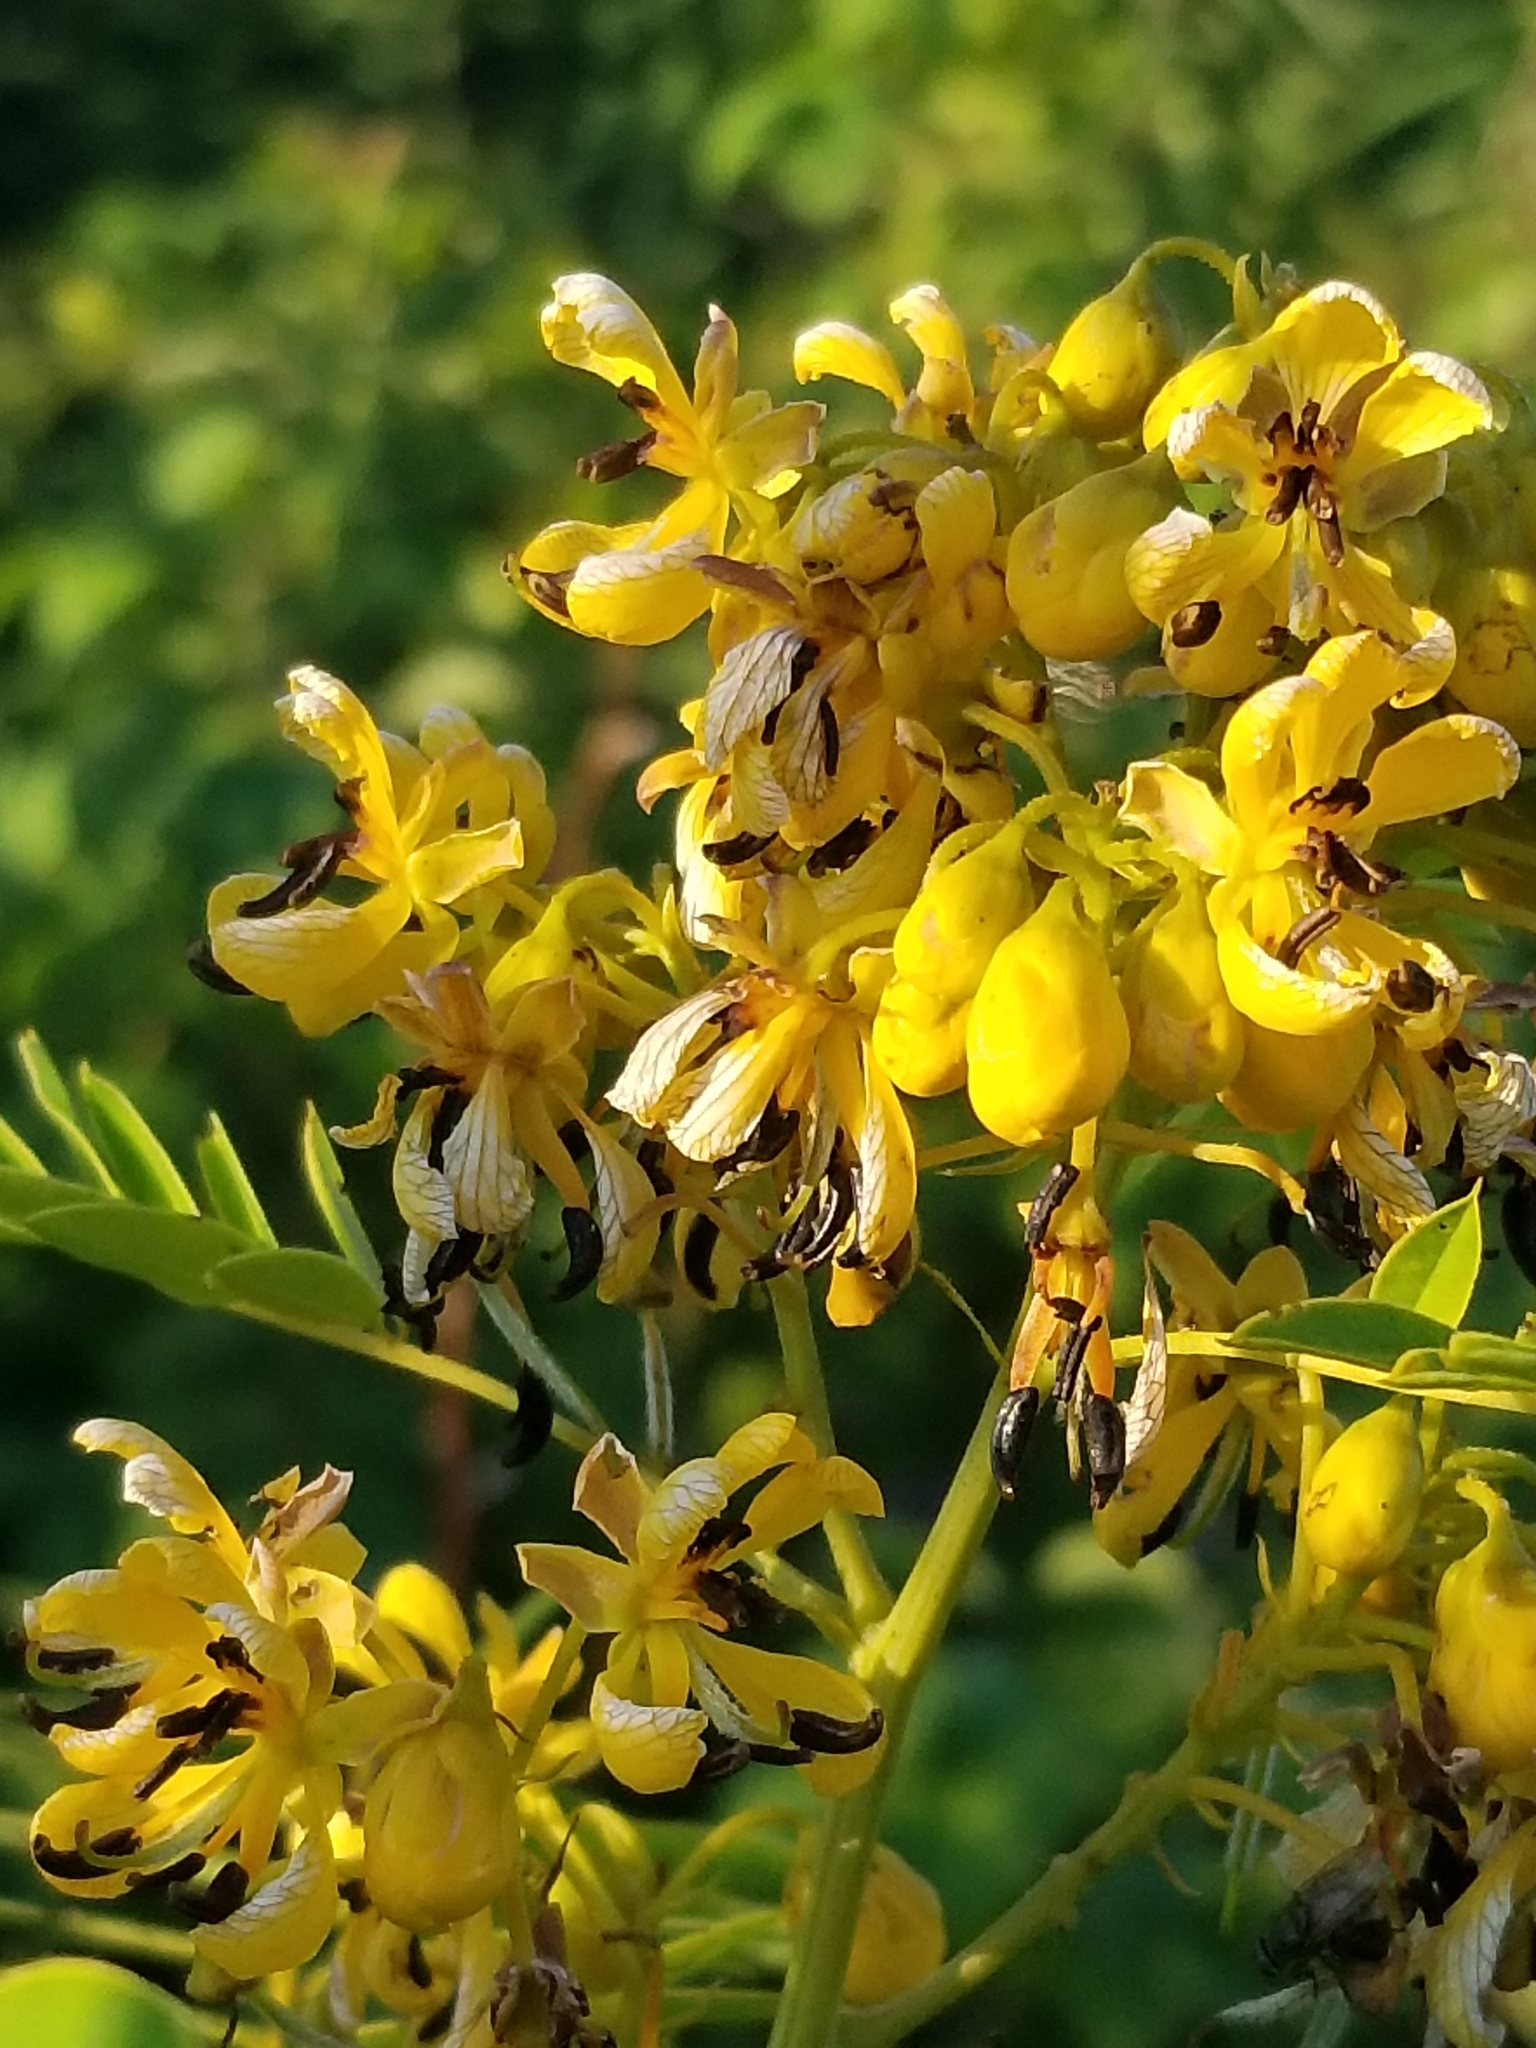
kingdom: Plantae
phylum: Tracheophyta
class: Magnoliopsida
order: Fabales
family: Fabaceae
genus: Senna
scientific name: Senna hebecarpa
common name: Wild senna
